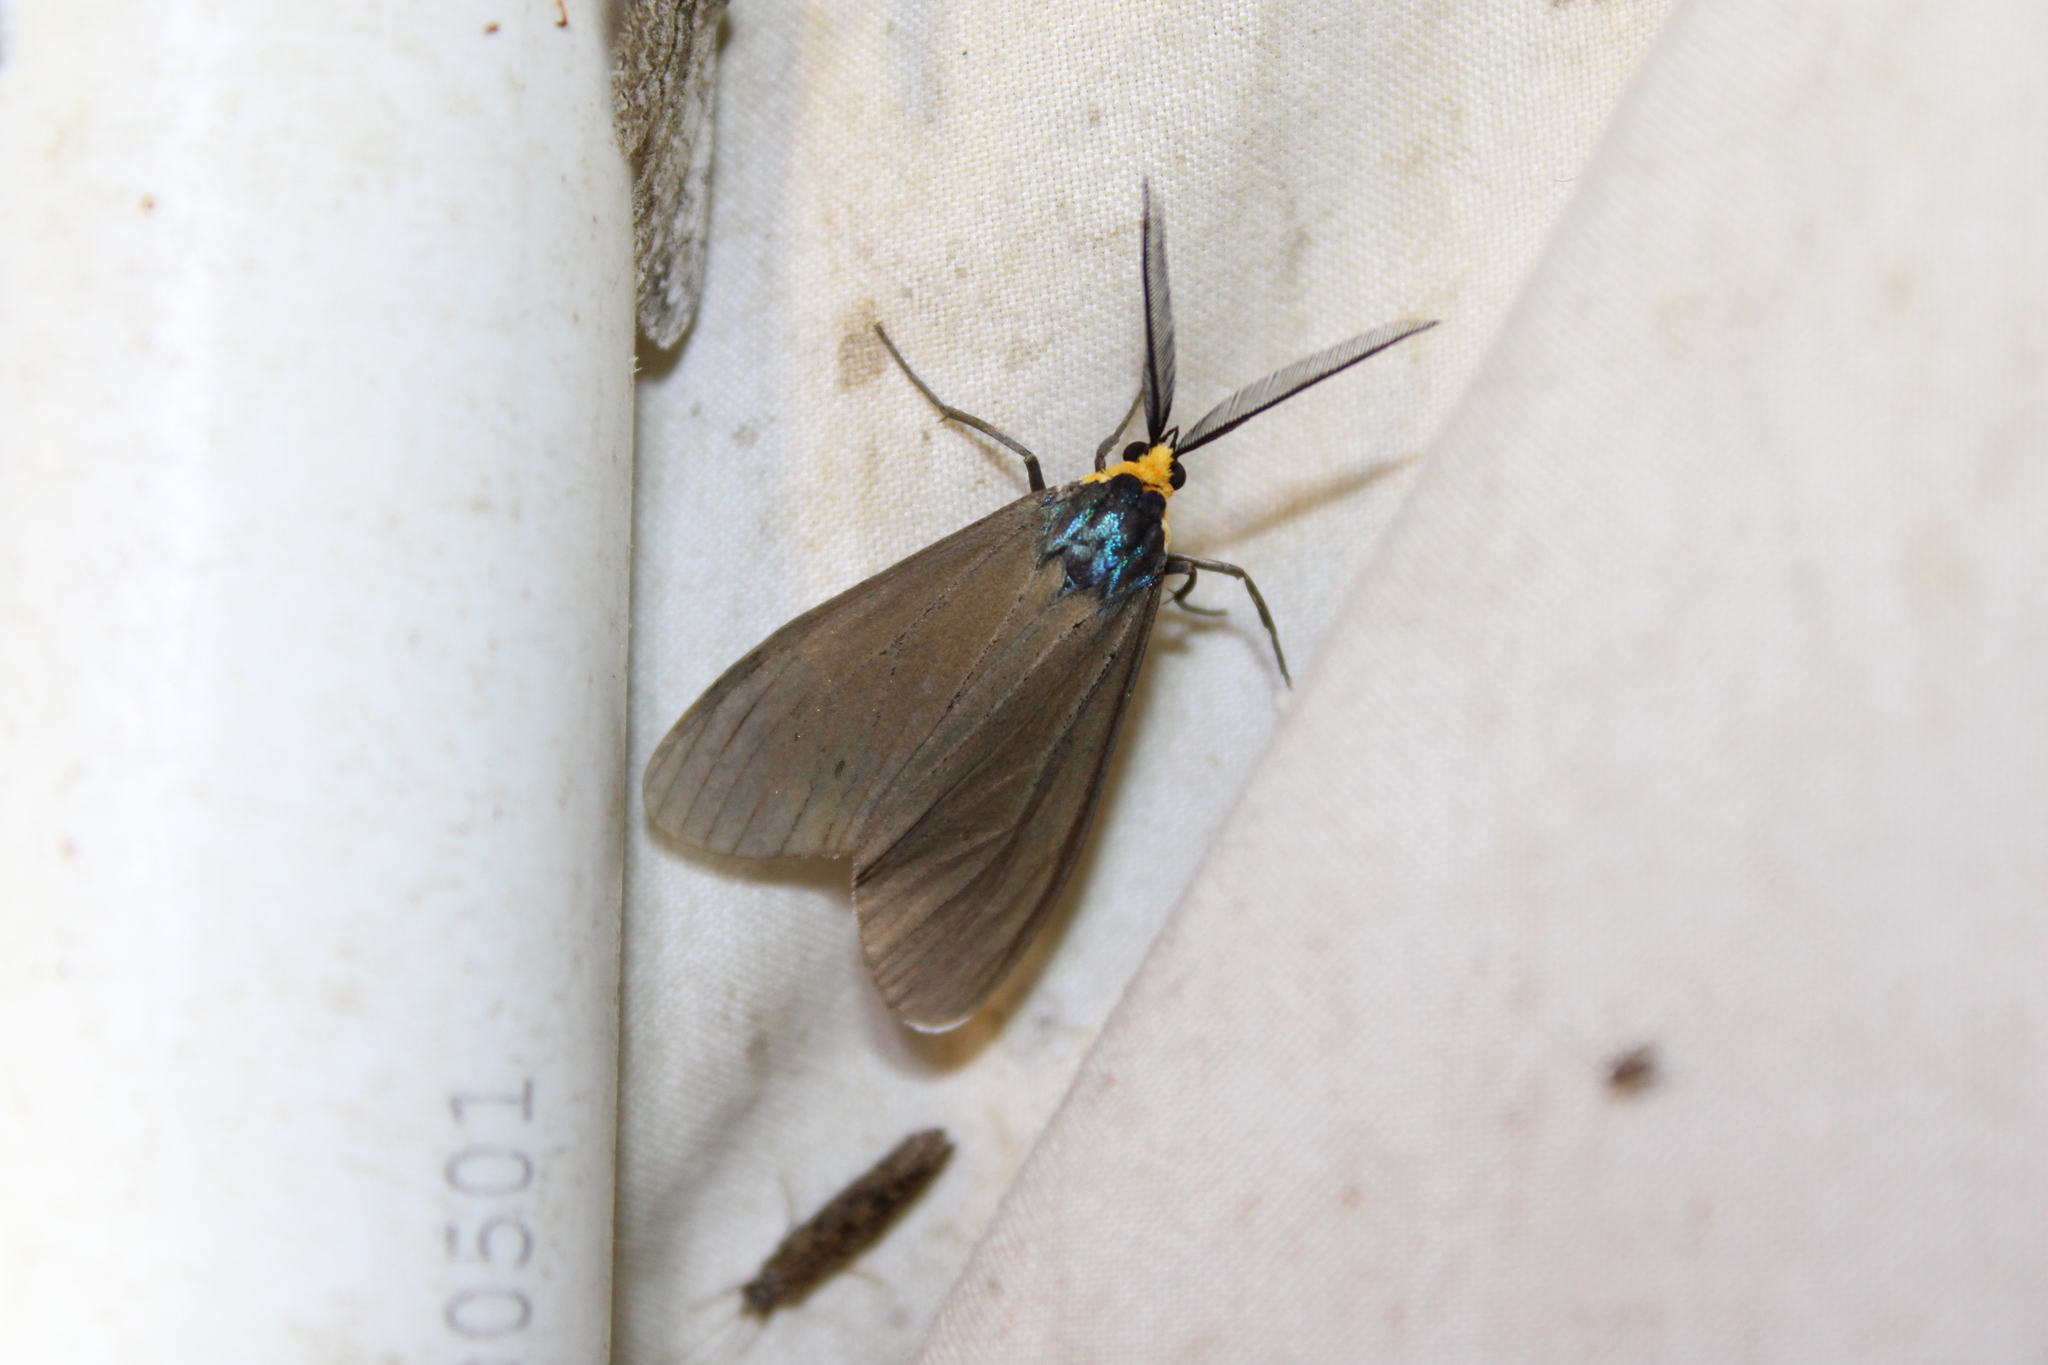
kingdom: Animalia
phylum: Arthropoda
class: Insecta
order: Lepidoptera
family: Erebidae
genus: Ctenucha
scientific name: Ctenucha virginica
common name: Virginia ctenucha moth
